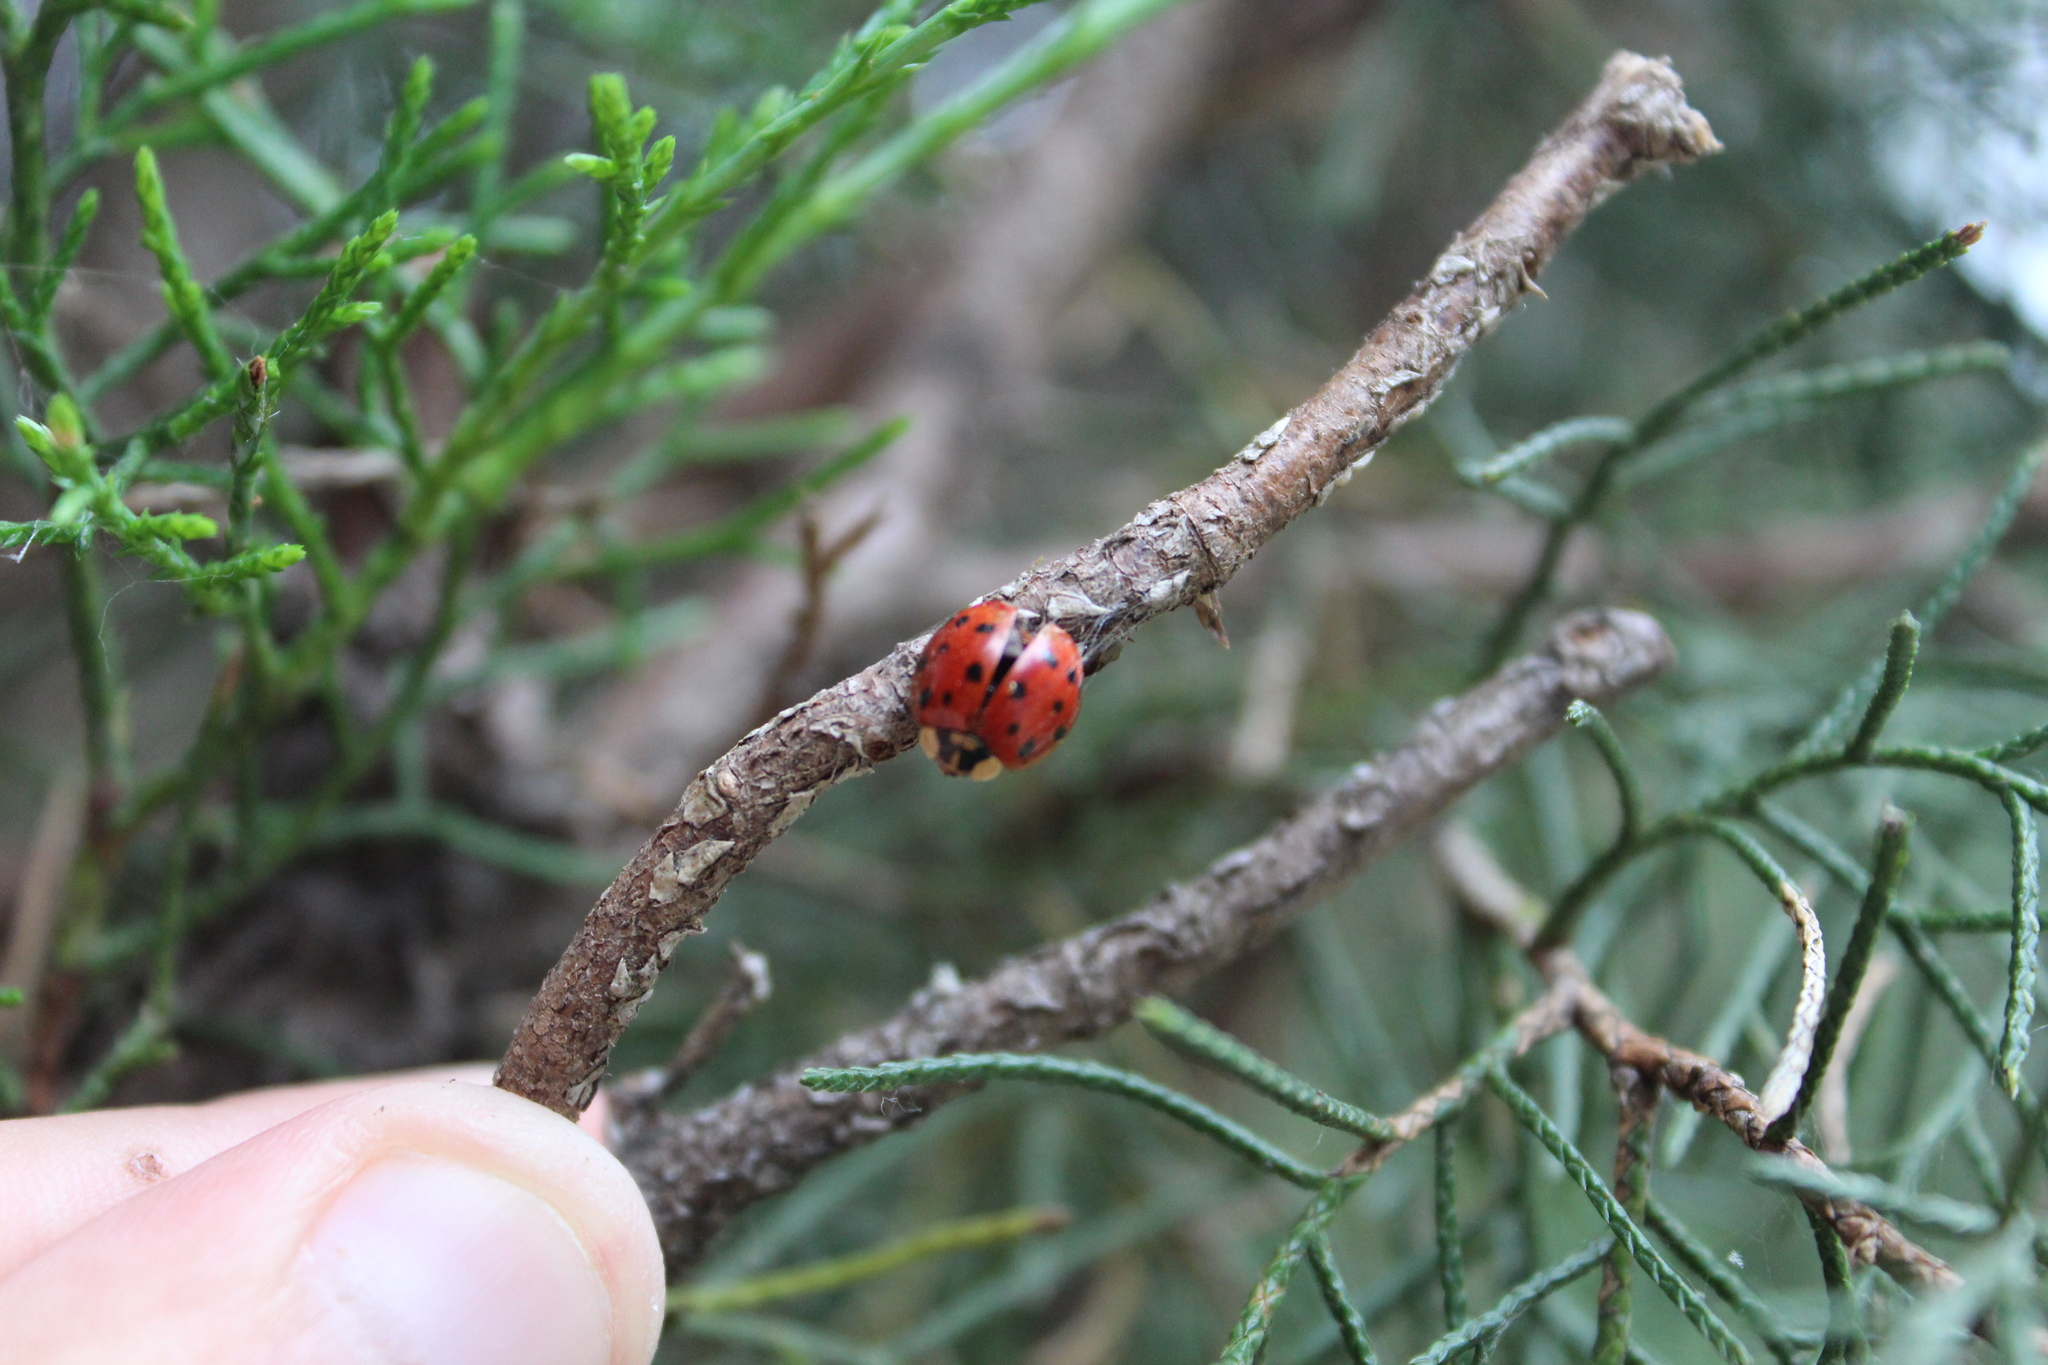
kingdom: Animalia
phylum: Arthropoda
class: Insecta
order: Coleoptera
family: Coccinellidae
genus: Harmonia
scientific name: Harmonia axyridis
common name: Harlequin ladybird
